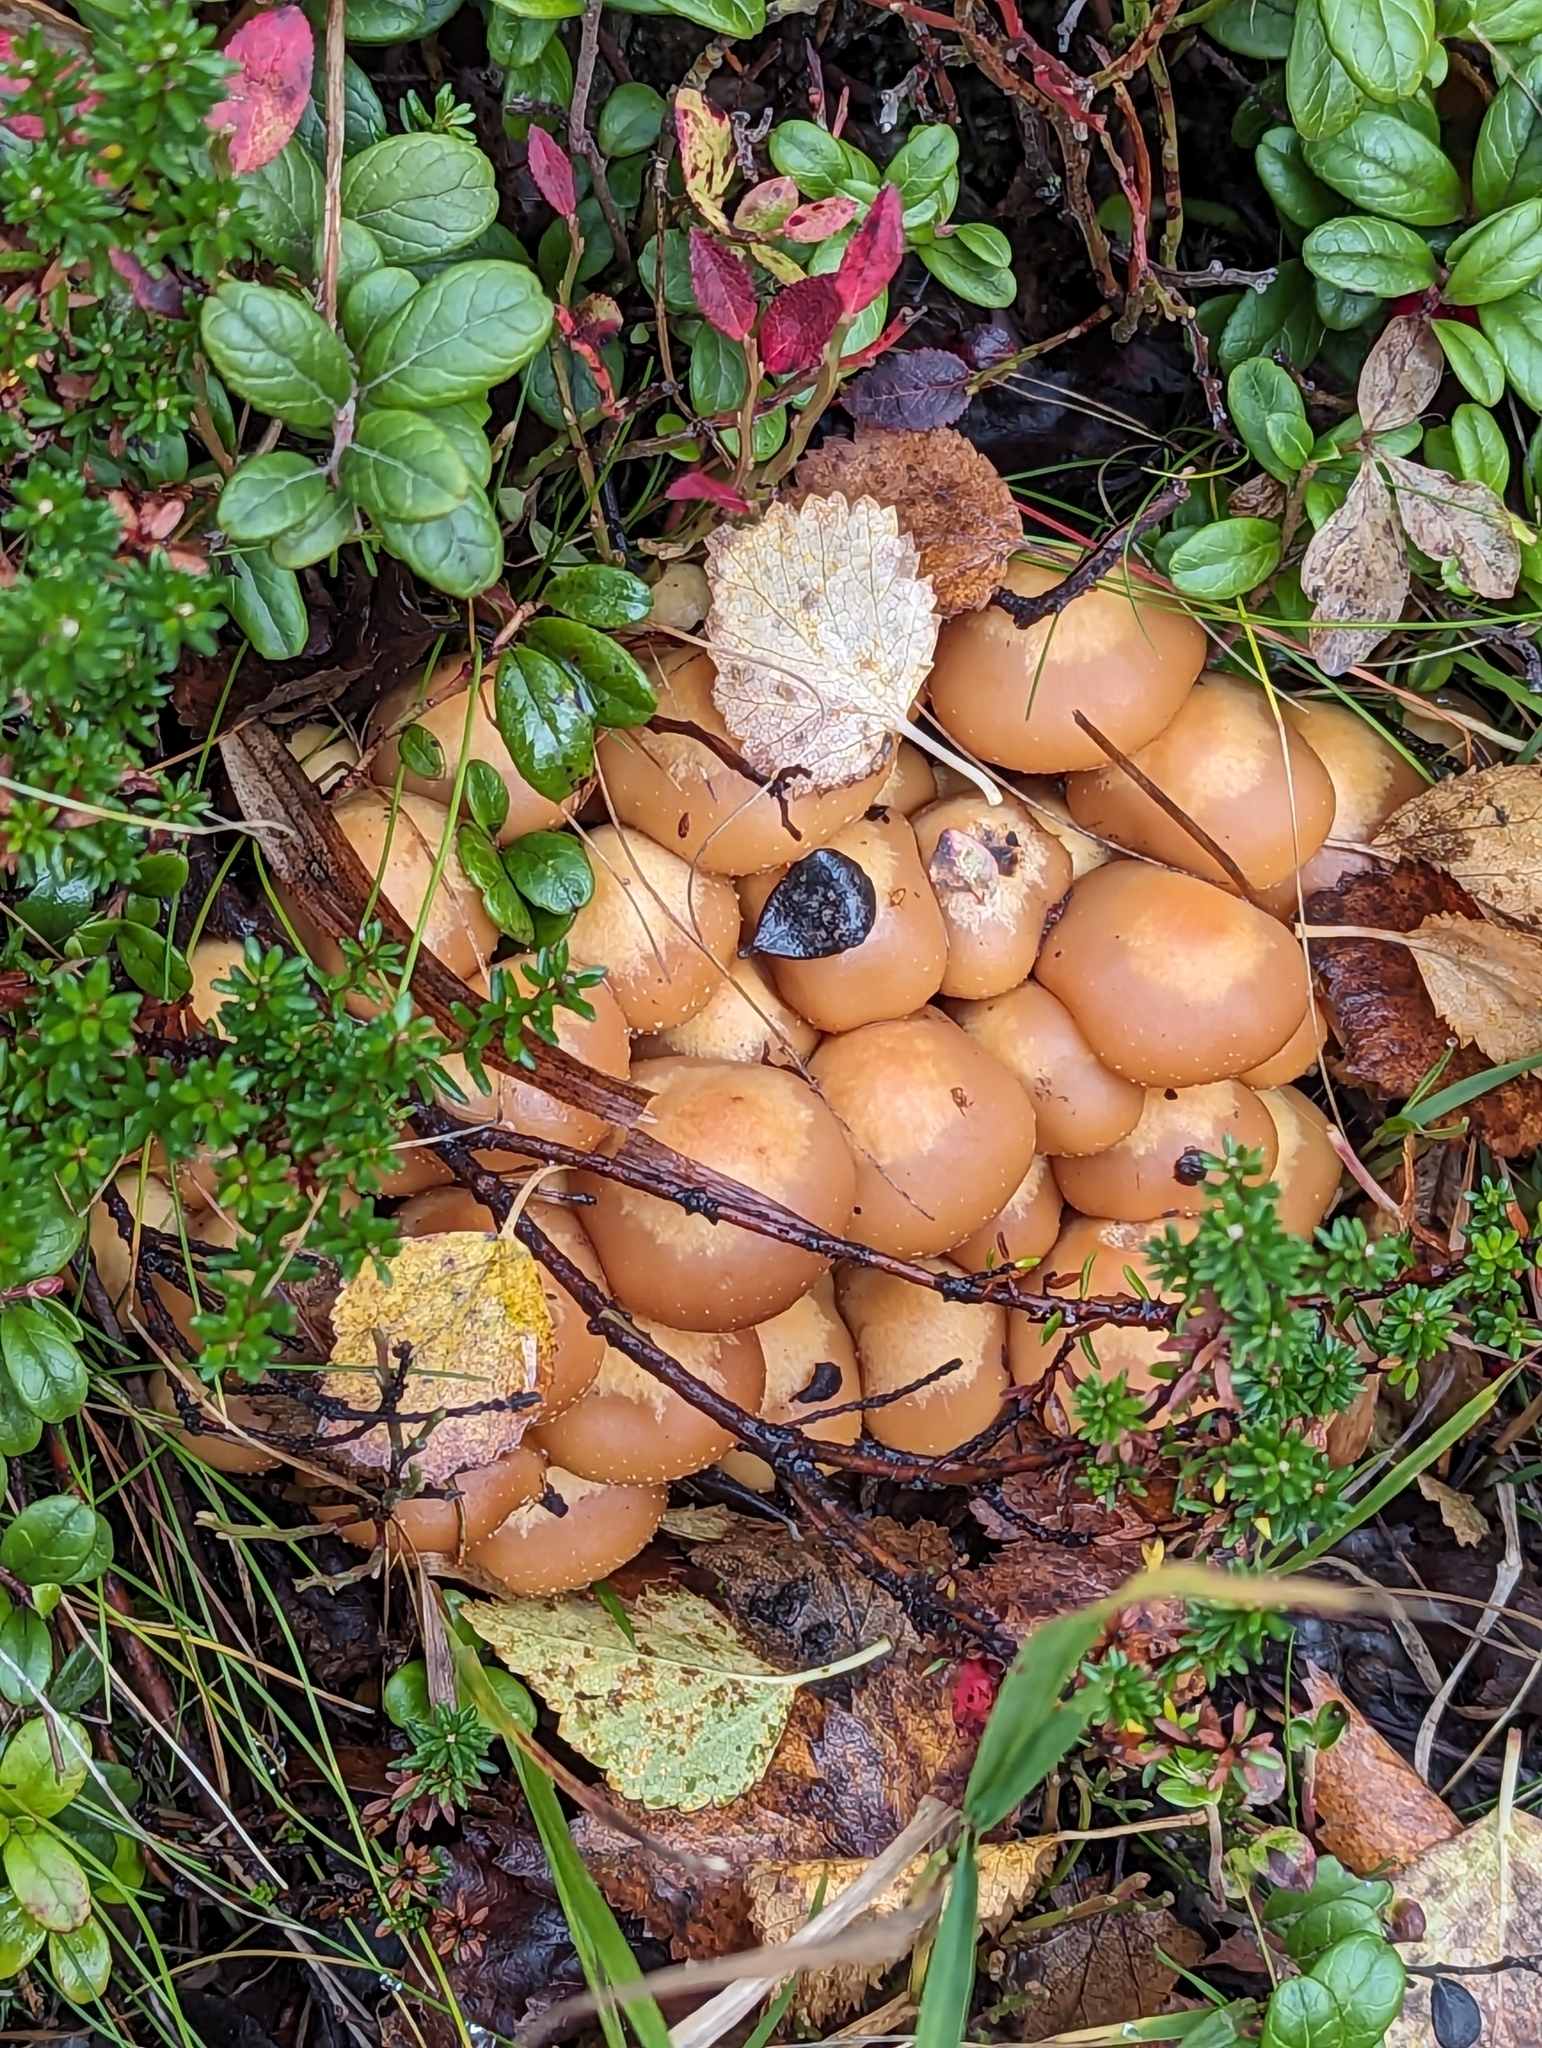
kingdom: Fungi
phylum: Basidiomycota
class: Agaricomycetes
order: Agaricales
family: Strophariaceae
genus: Kuehneromyces
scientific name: Kuehneromyces mutabilis
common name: Sheathed woodtuft
